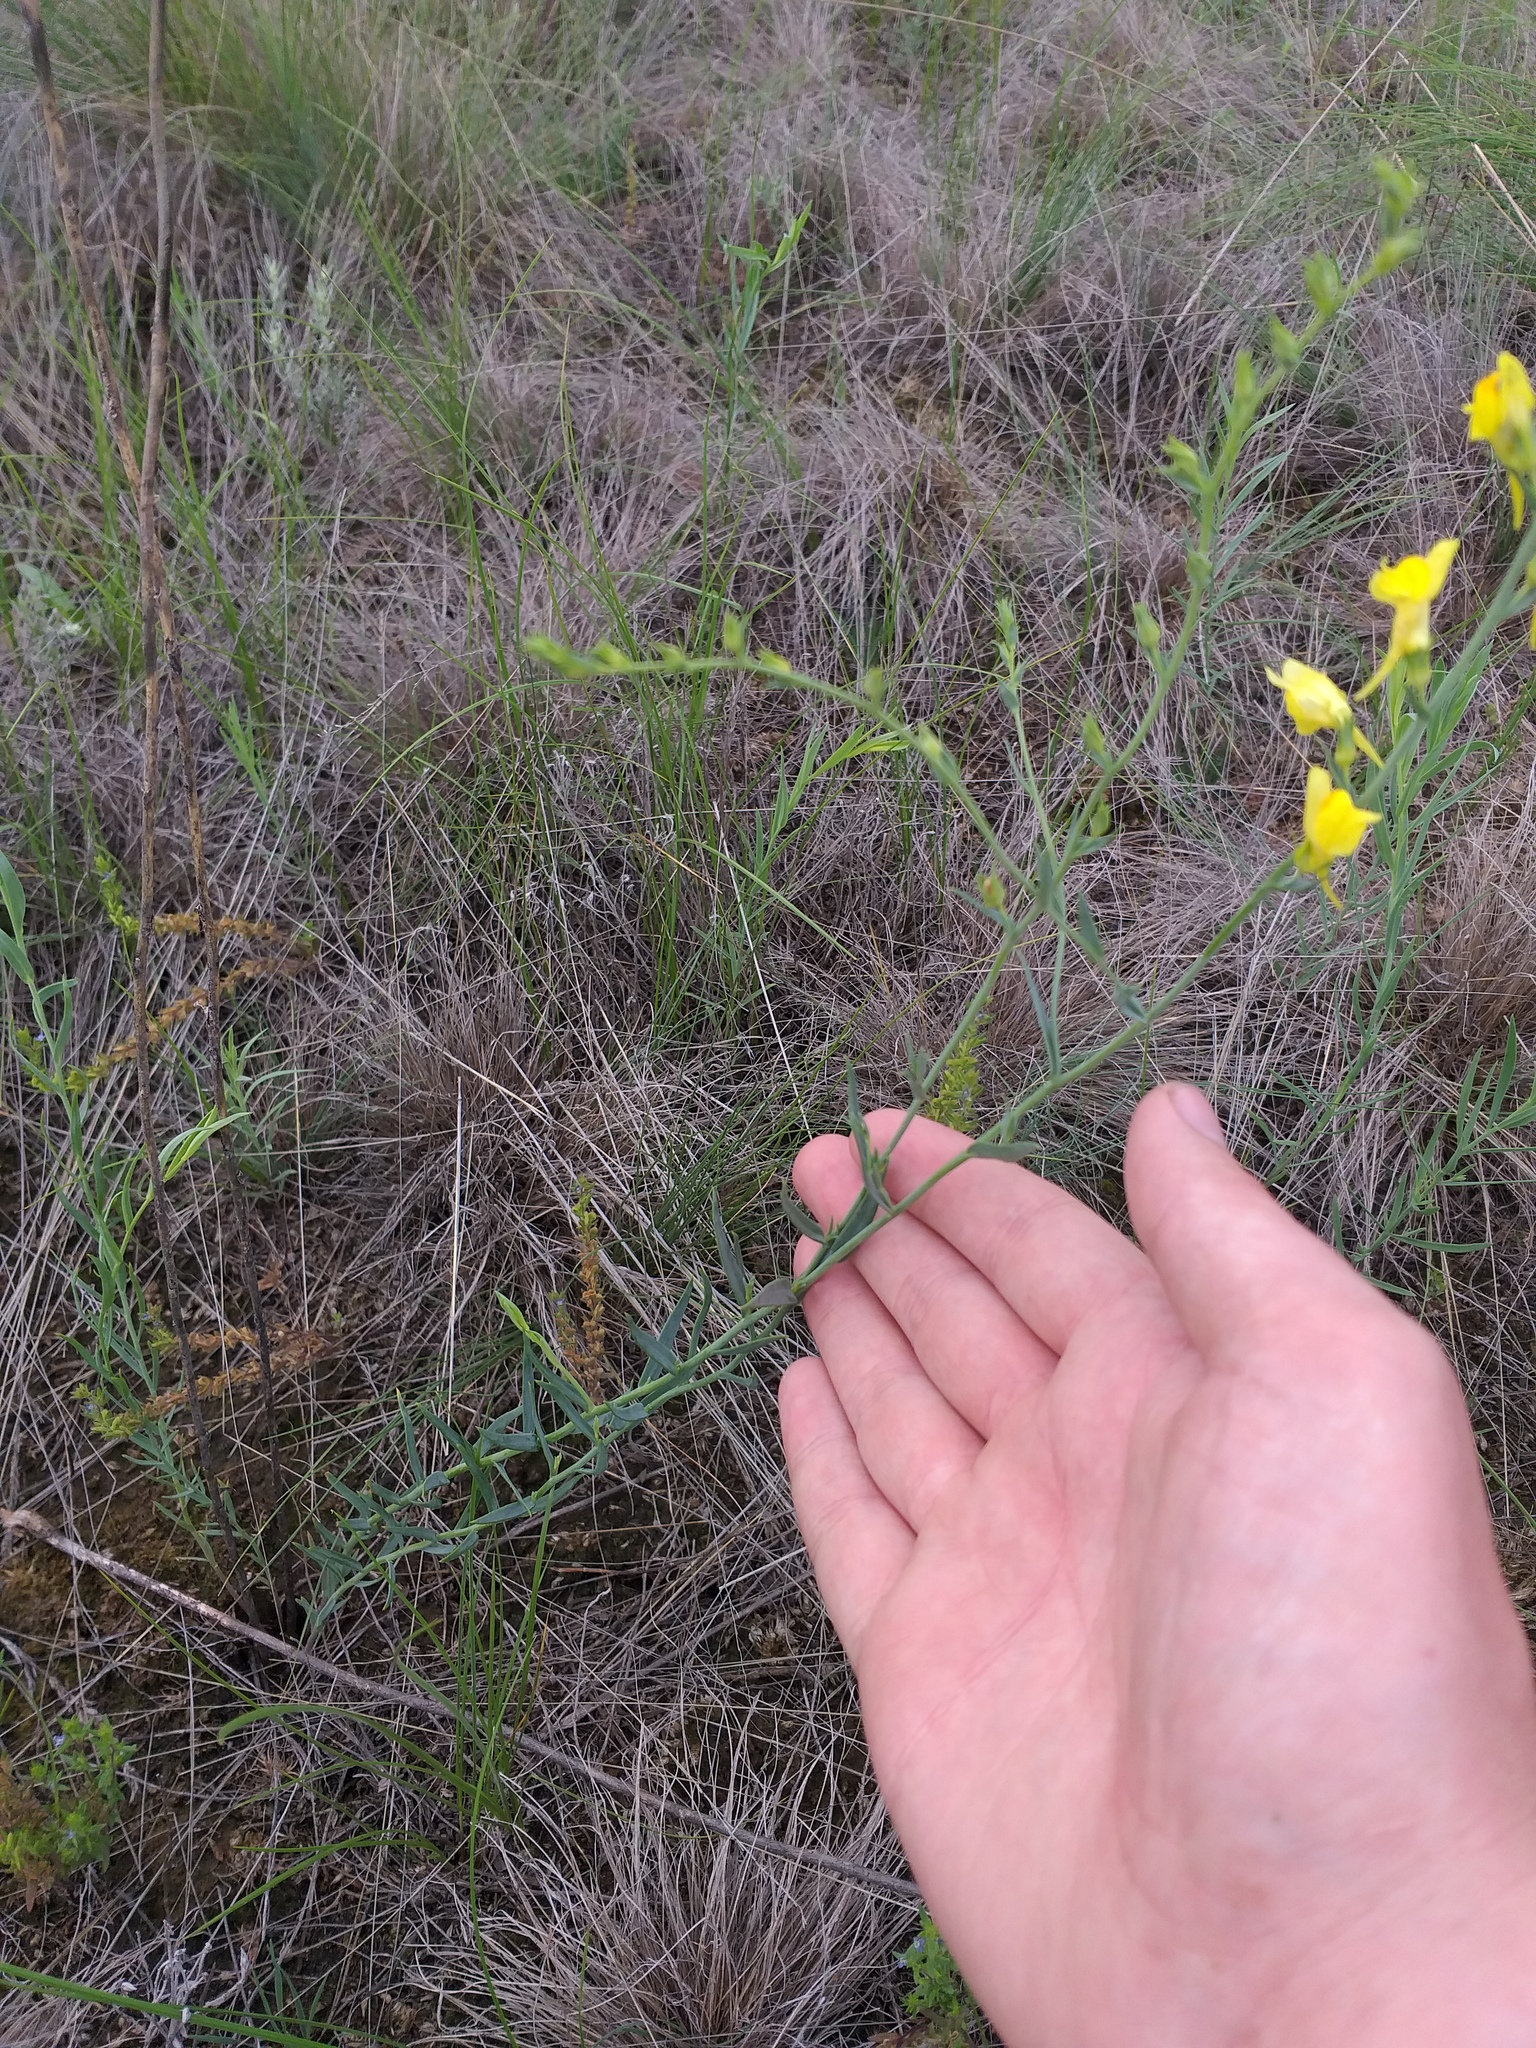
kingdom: Plantae
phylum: Tracheophyta
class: Magnoliopsida
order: Lamiales
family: Plantaginaceae
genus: Linaria
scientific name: Linaria genistifolia
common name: Broomleaf toadflax
